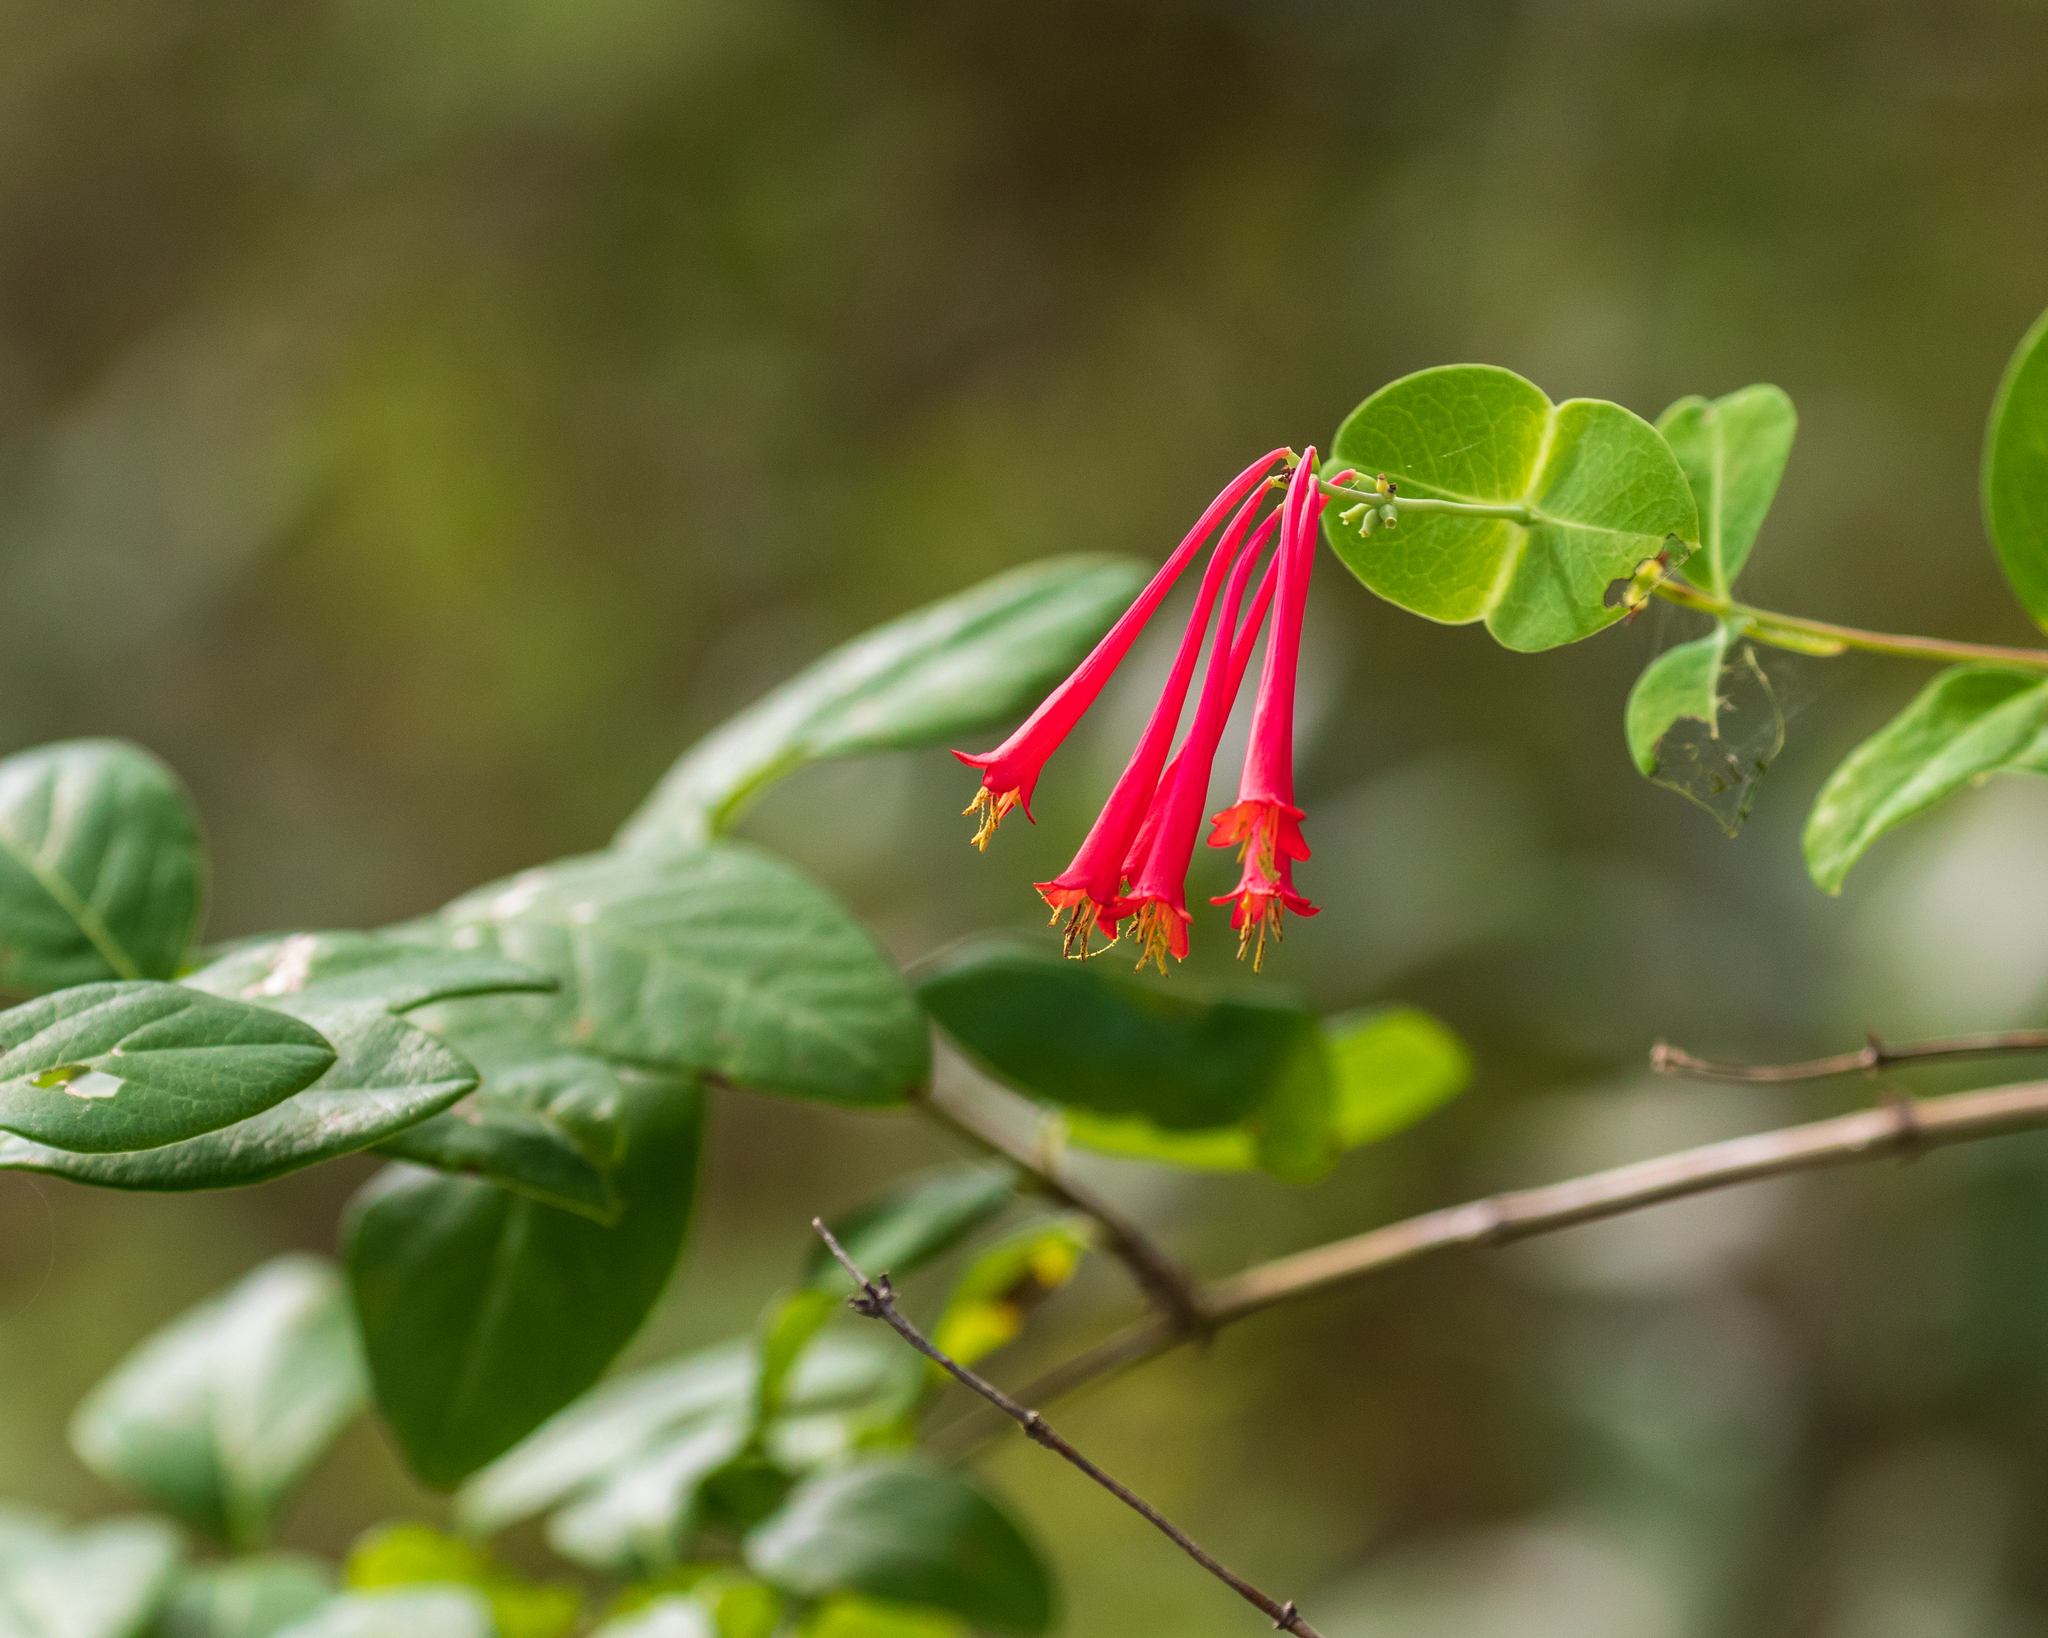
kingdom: Plantae
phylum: Tracheophyta
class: Magnoliopsida
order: Dipsacales
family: Caprifoliaceae
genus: Lonicera
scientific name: Lonicera sempervirens
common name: Coral honeysuckle
